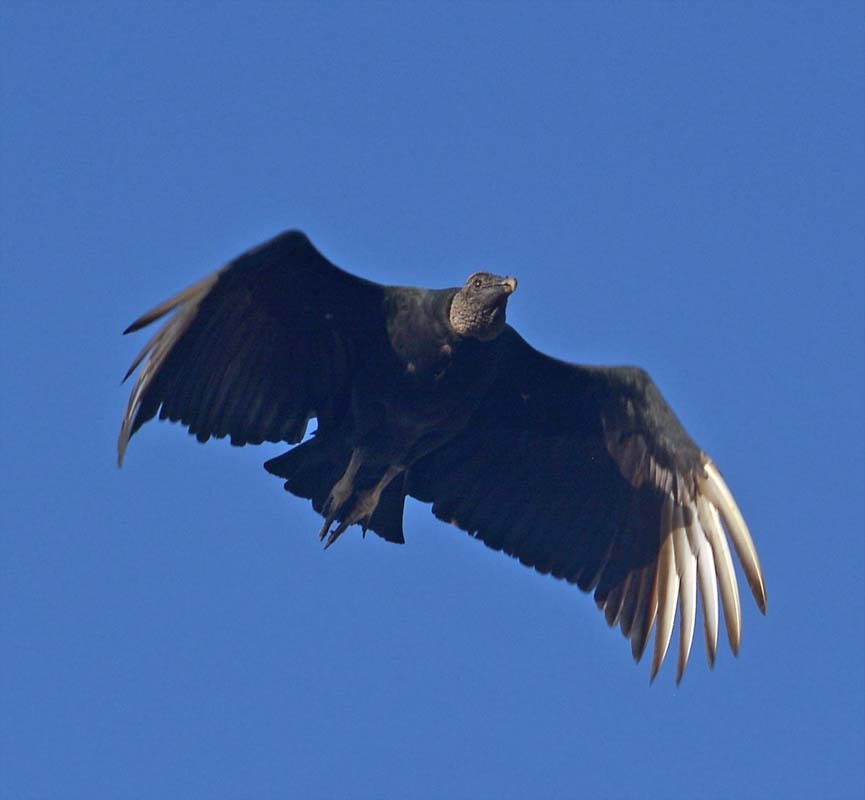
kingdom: Animalia
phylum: Chordata
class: Aves
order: Accipitriformes
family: Cathartidae
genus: Coragyps
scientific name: Coragyps atratus
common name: Black vulture
